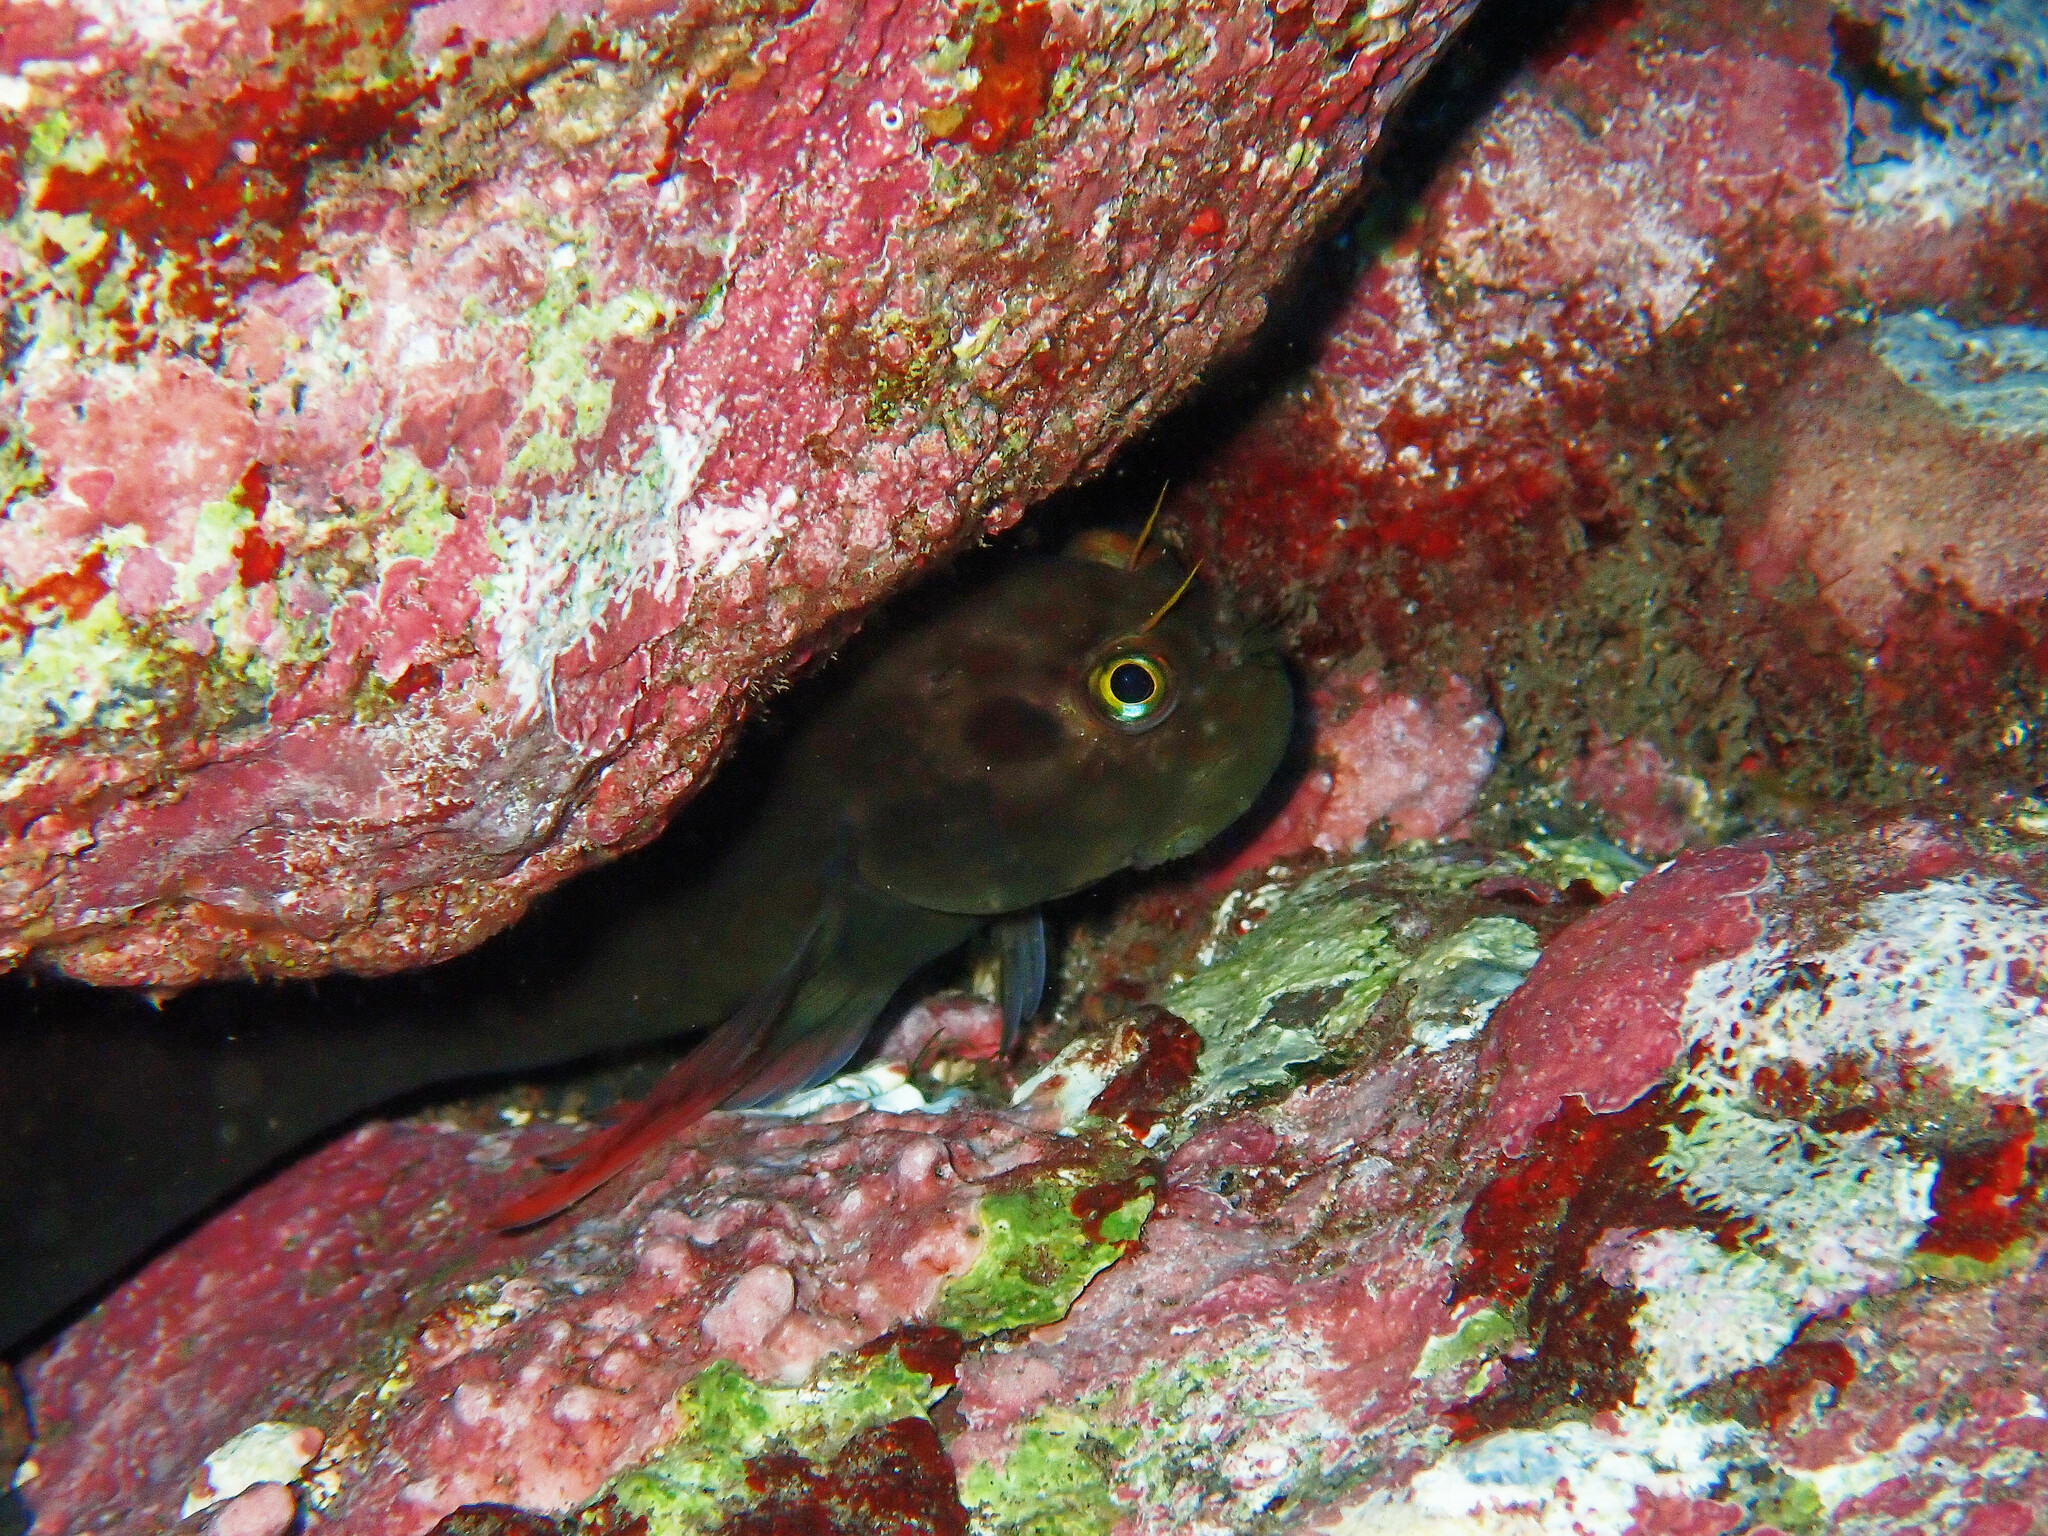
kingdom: Animalia
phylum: Chordata
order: Perciformes
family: Blenniidae
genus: Ophioblennius
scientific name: Ophioblennius atlanticus
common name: Redlip blenny
